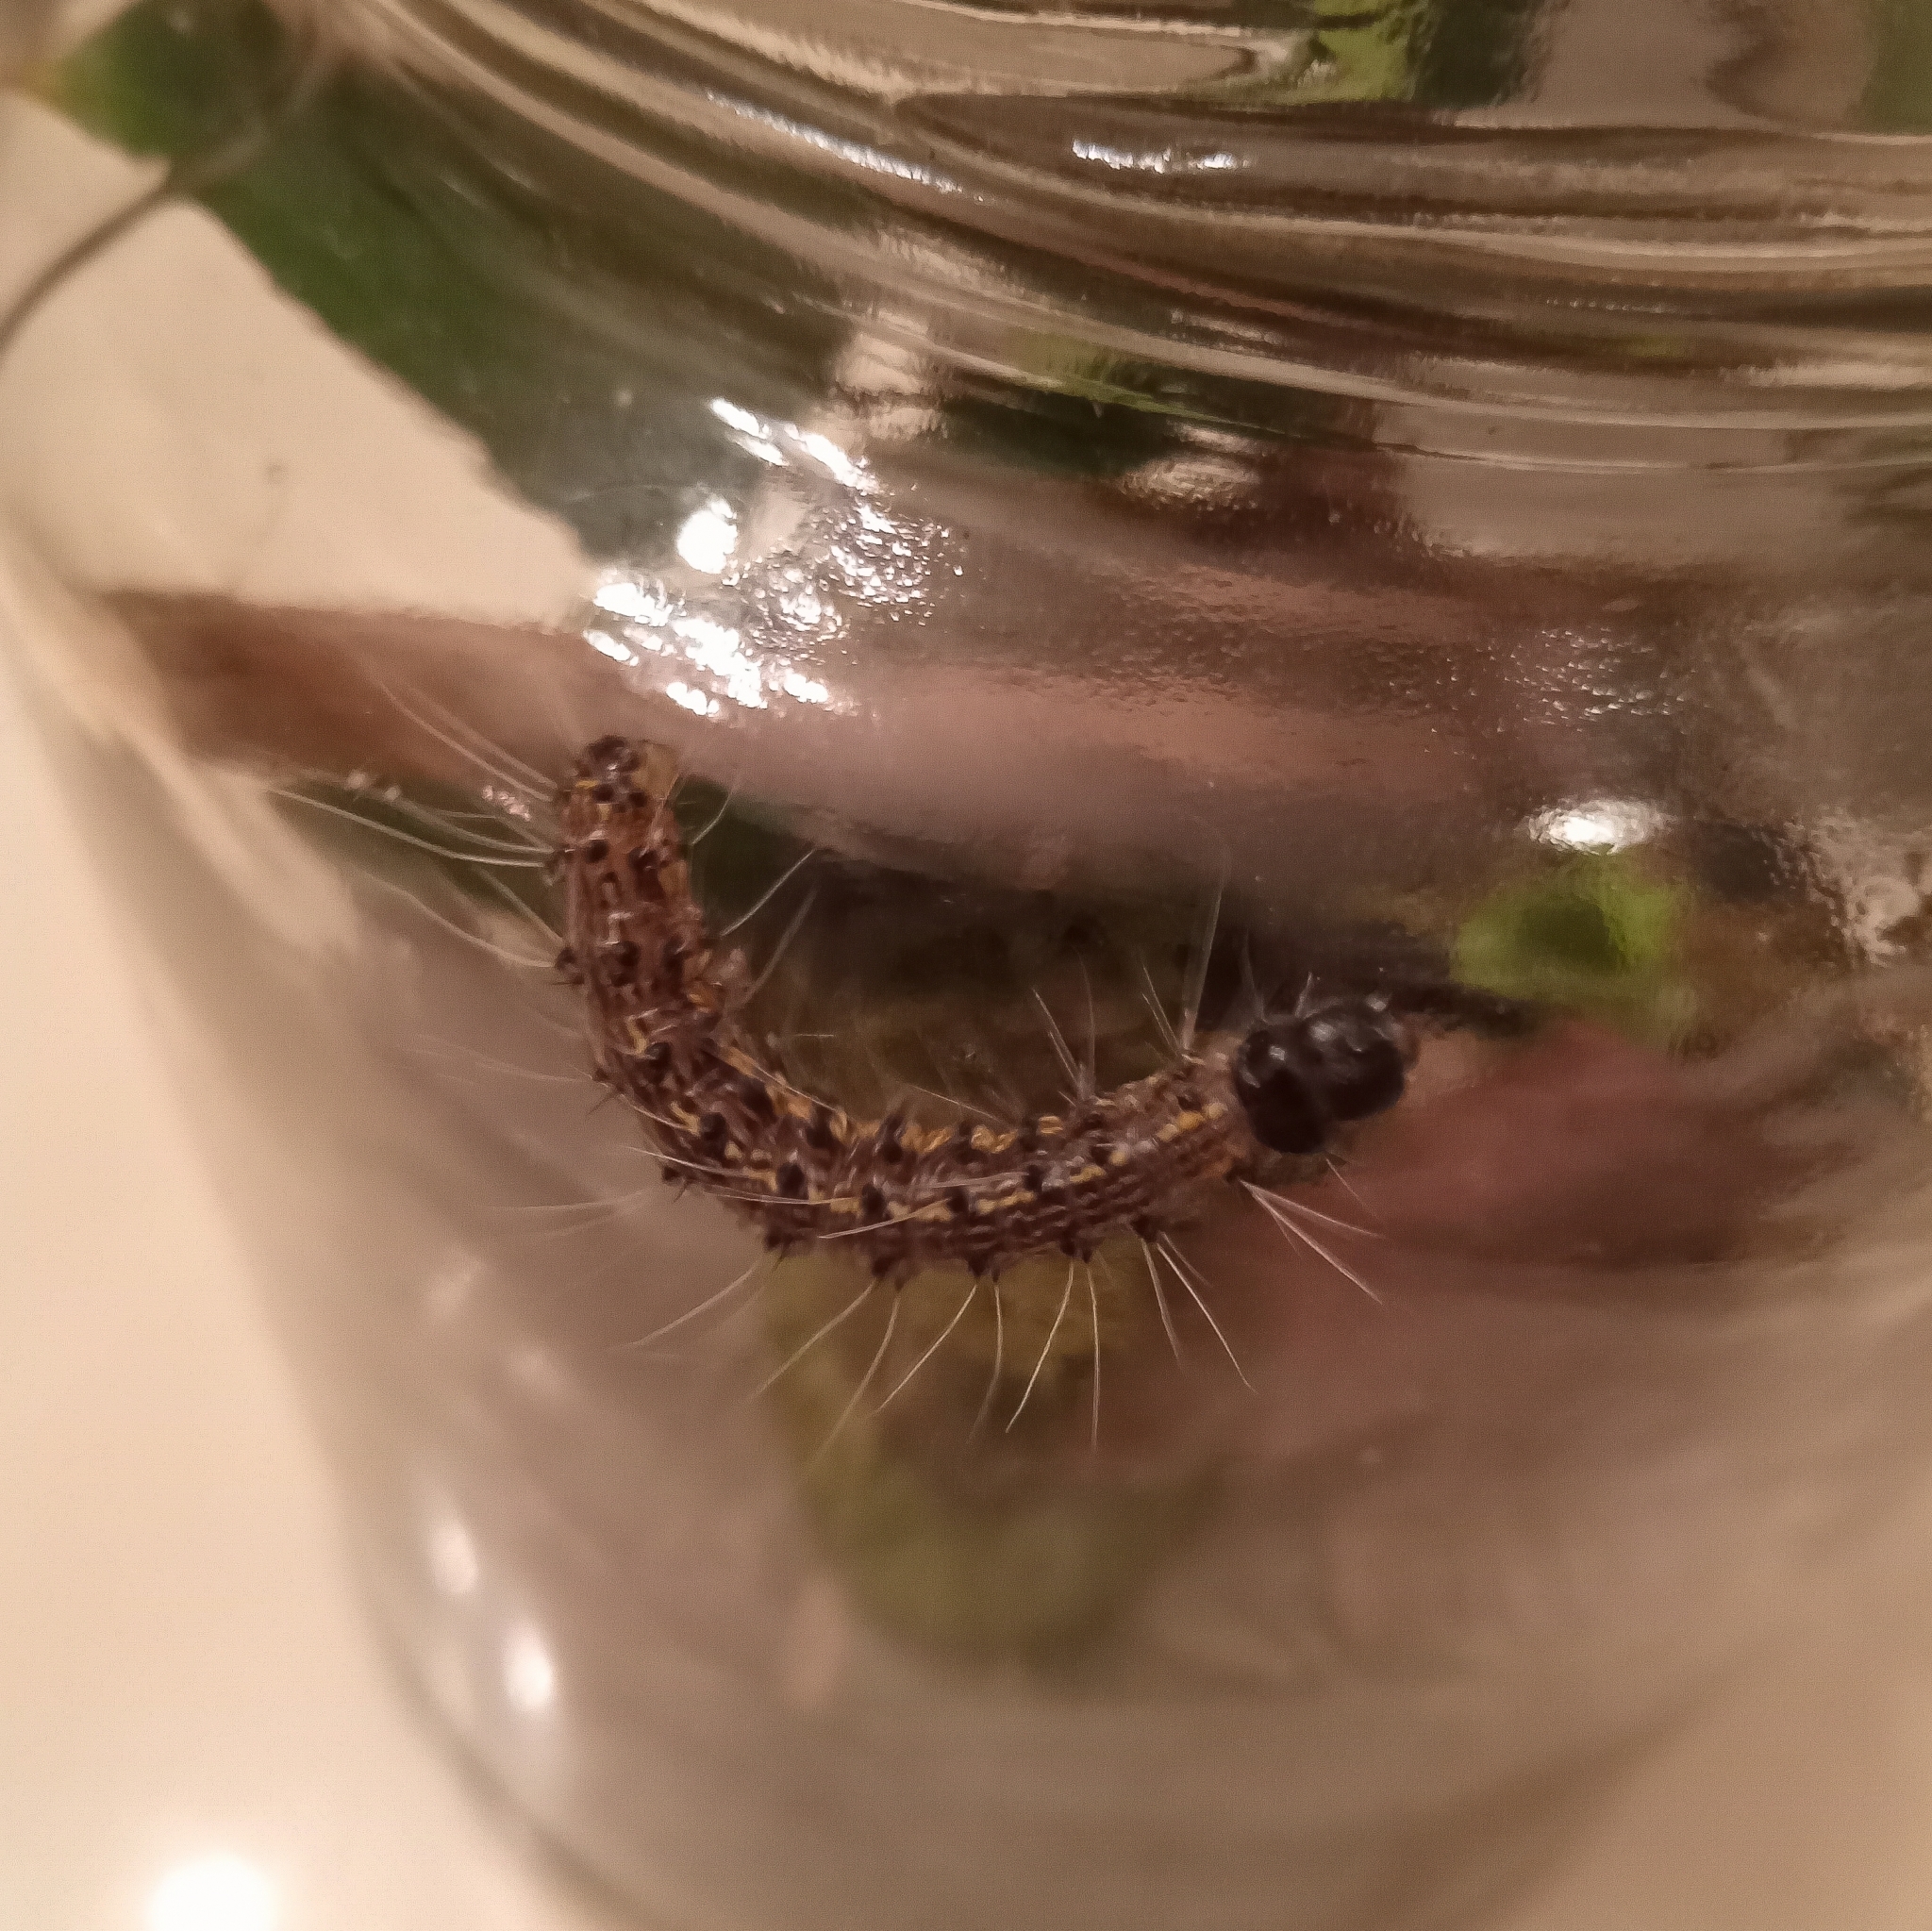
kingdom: Animalia
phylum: Arthropoda
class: Insecta
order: Lepidoptera
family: Erebidae
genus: Litoprosopus
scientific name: Litoprosopus futilis
